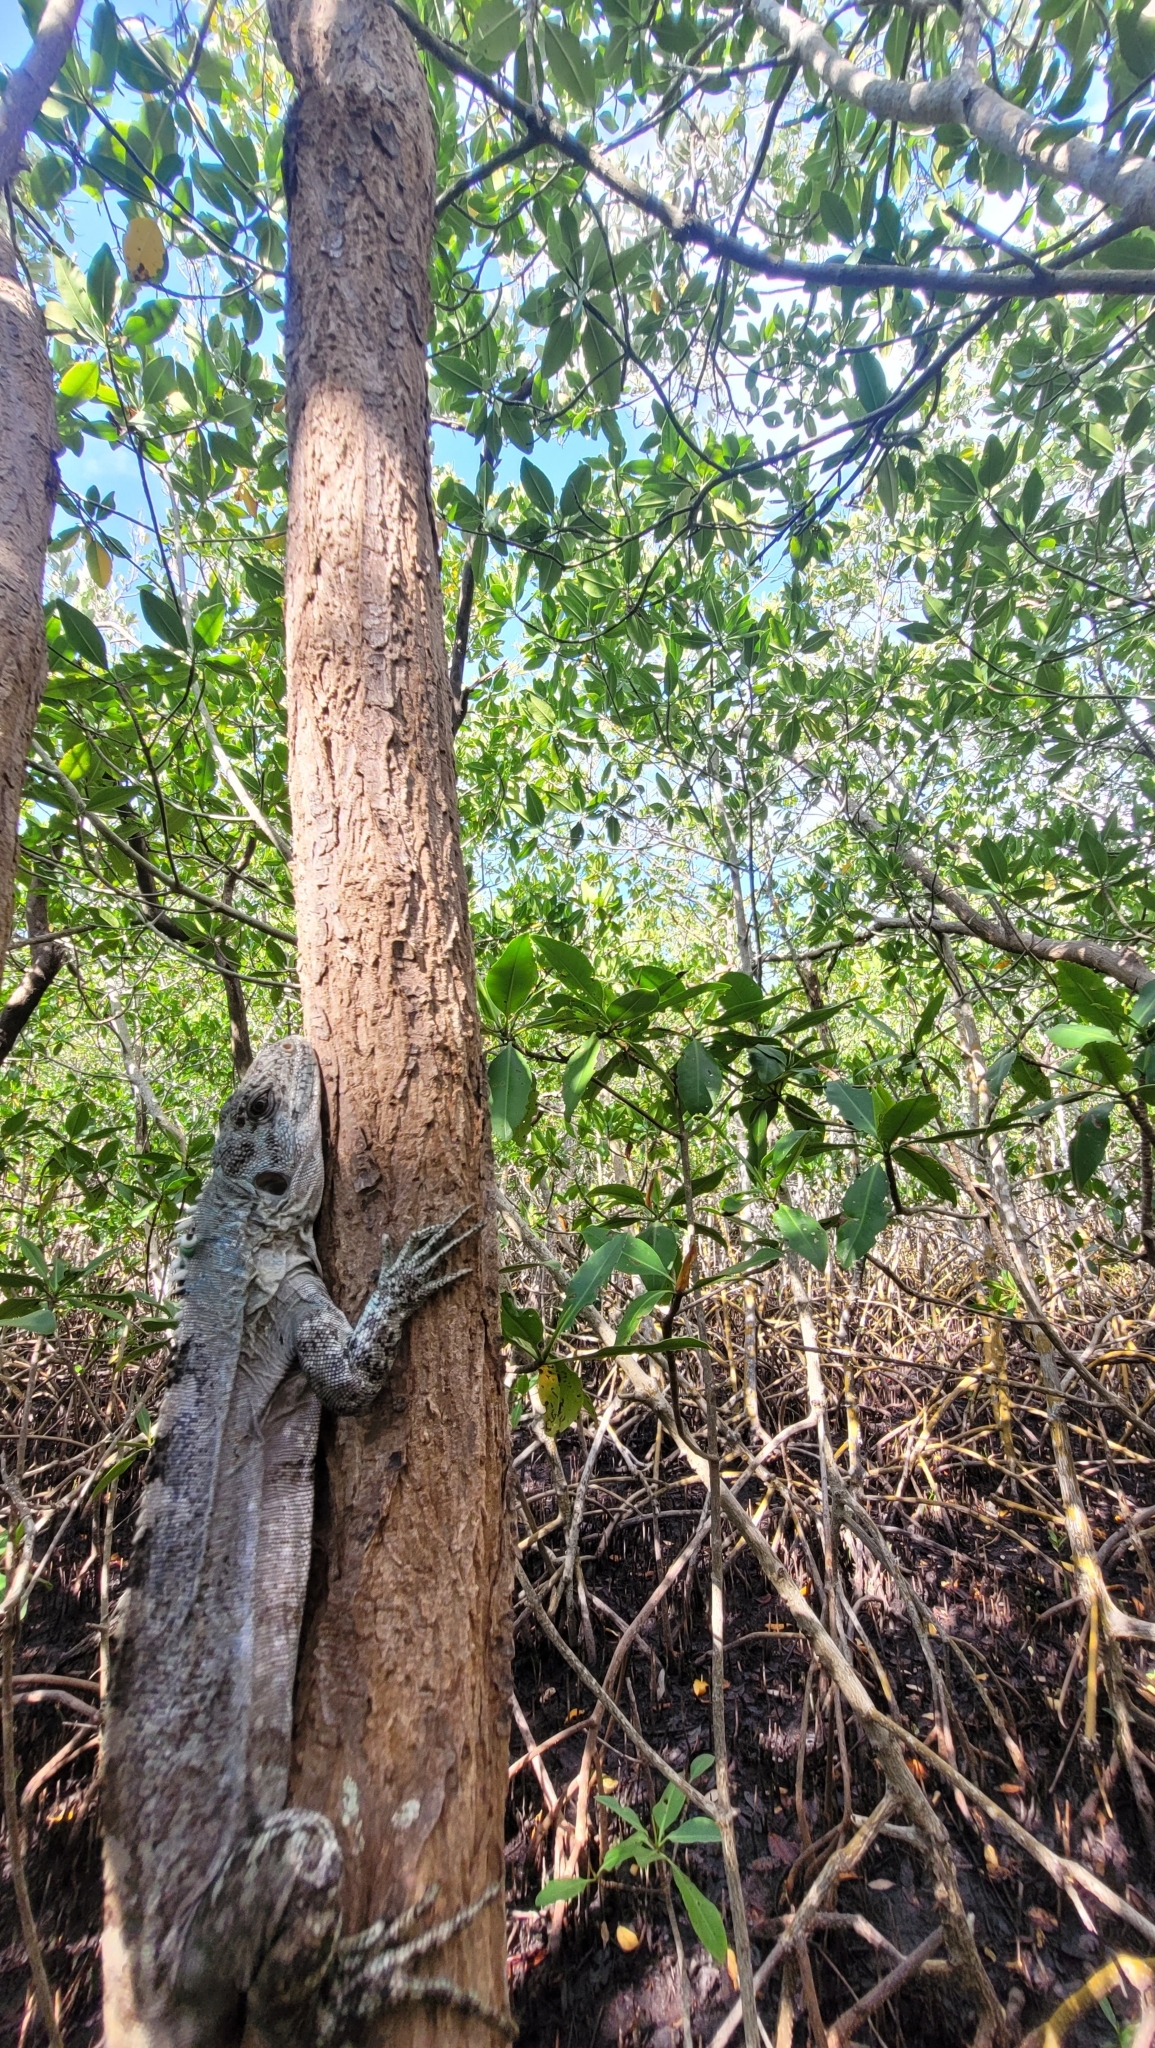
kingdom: Animalia
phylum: Chordata
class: Squamata
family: Iguanidae
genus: Ctenosaura
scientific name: Ctenosaura bakeri
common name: Utila spiny-tailed iguana
